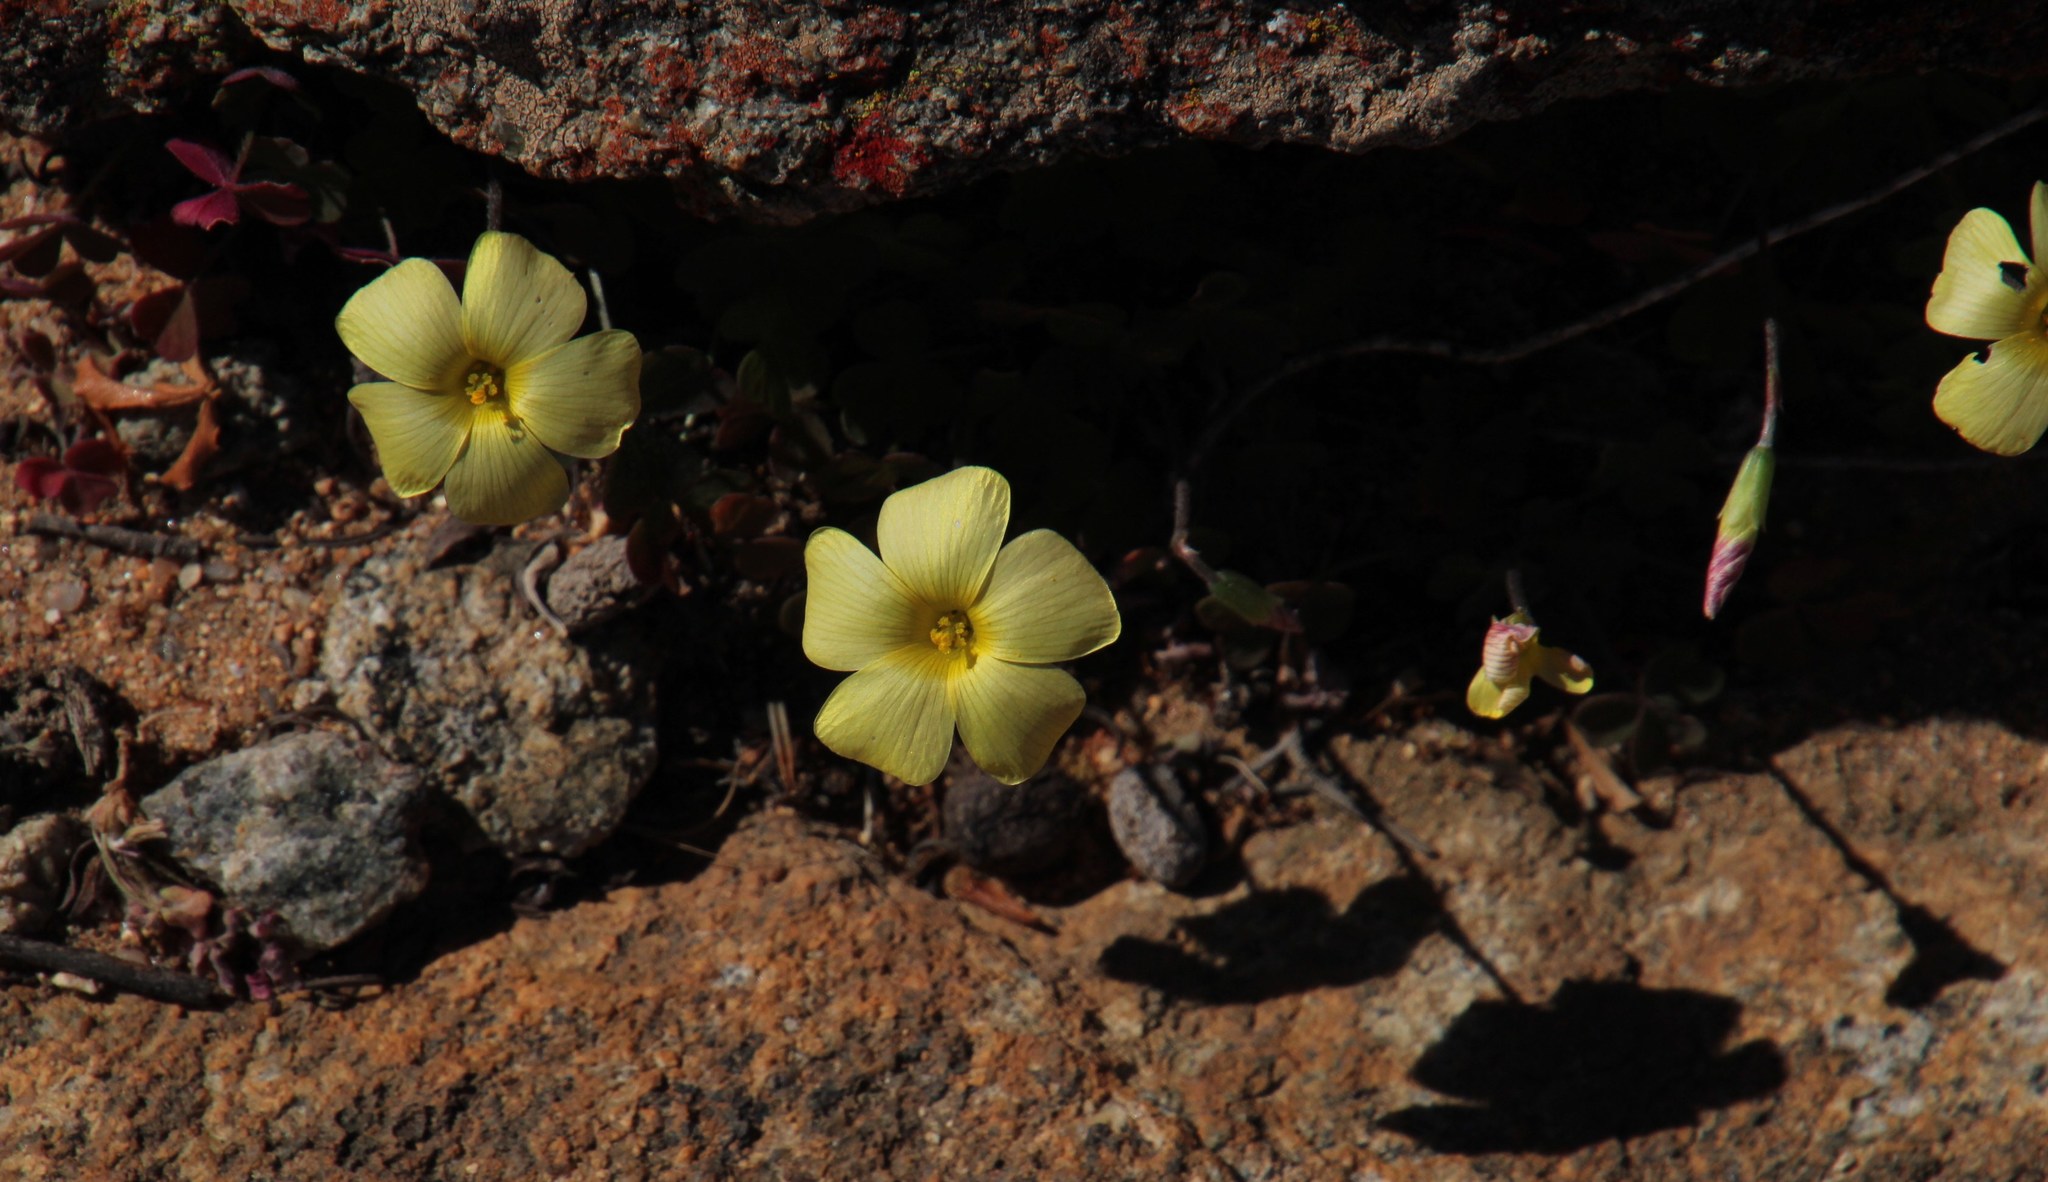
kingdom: Plantae
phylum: Tracheophyta
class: Magnoliopsida
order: Oxalidales
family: Oxalidaceae
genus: Oxalis
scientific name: Oxalis obtusa
